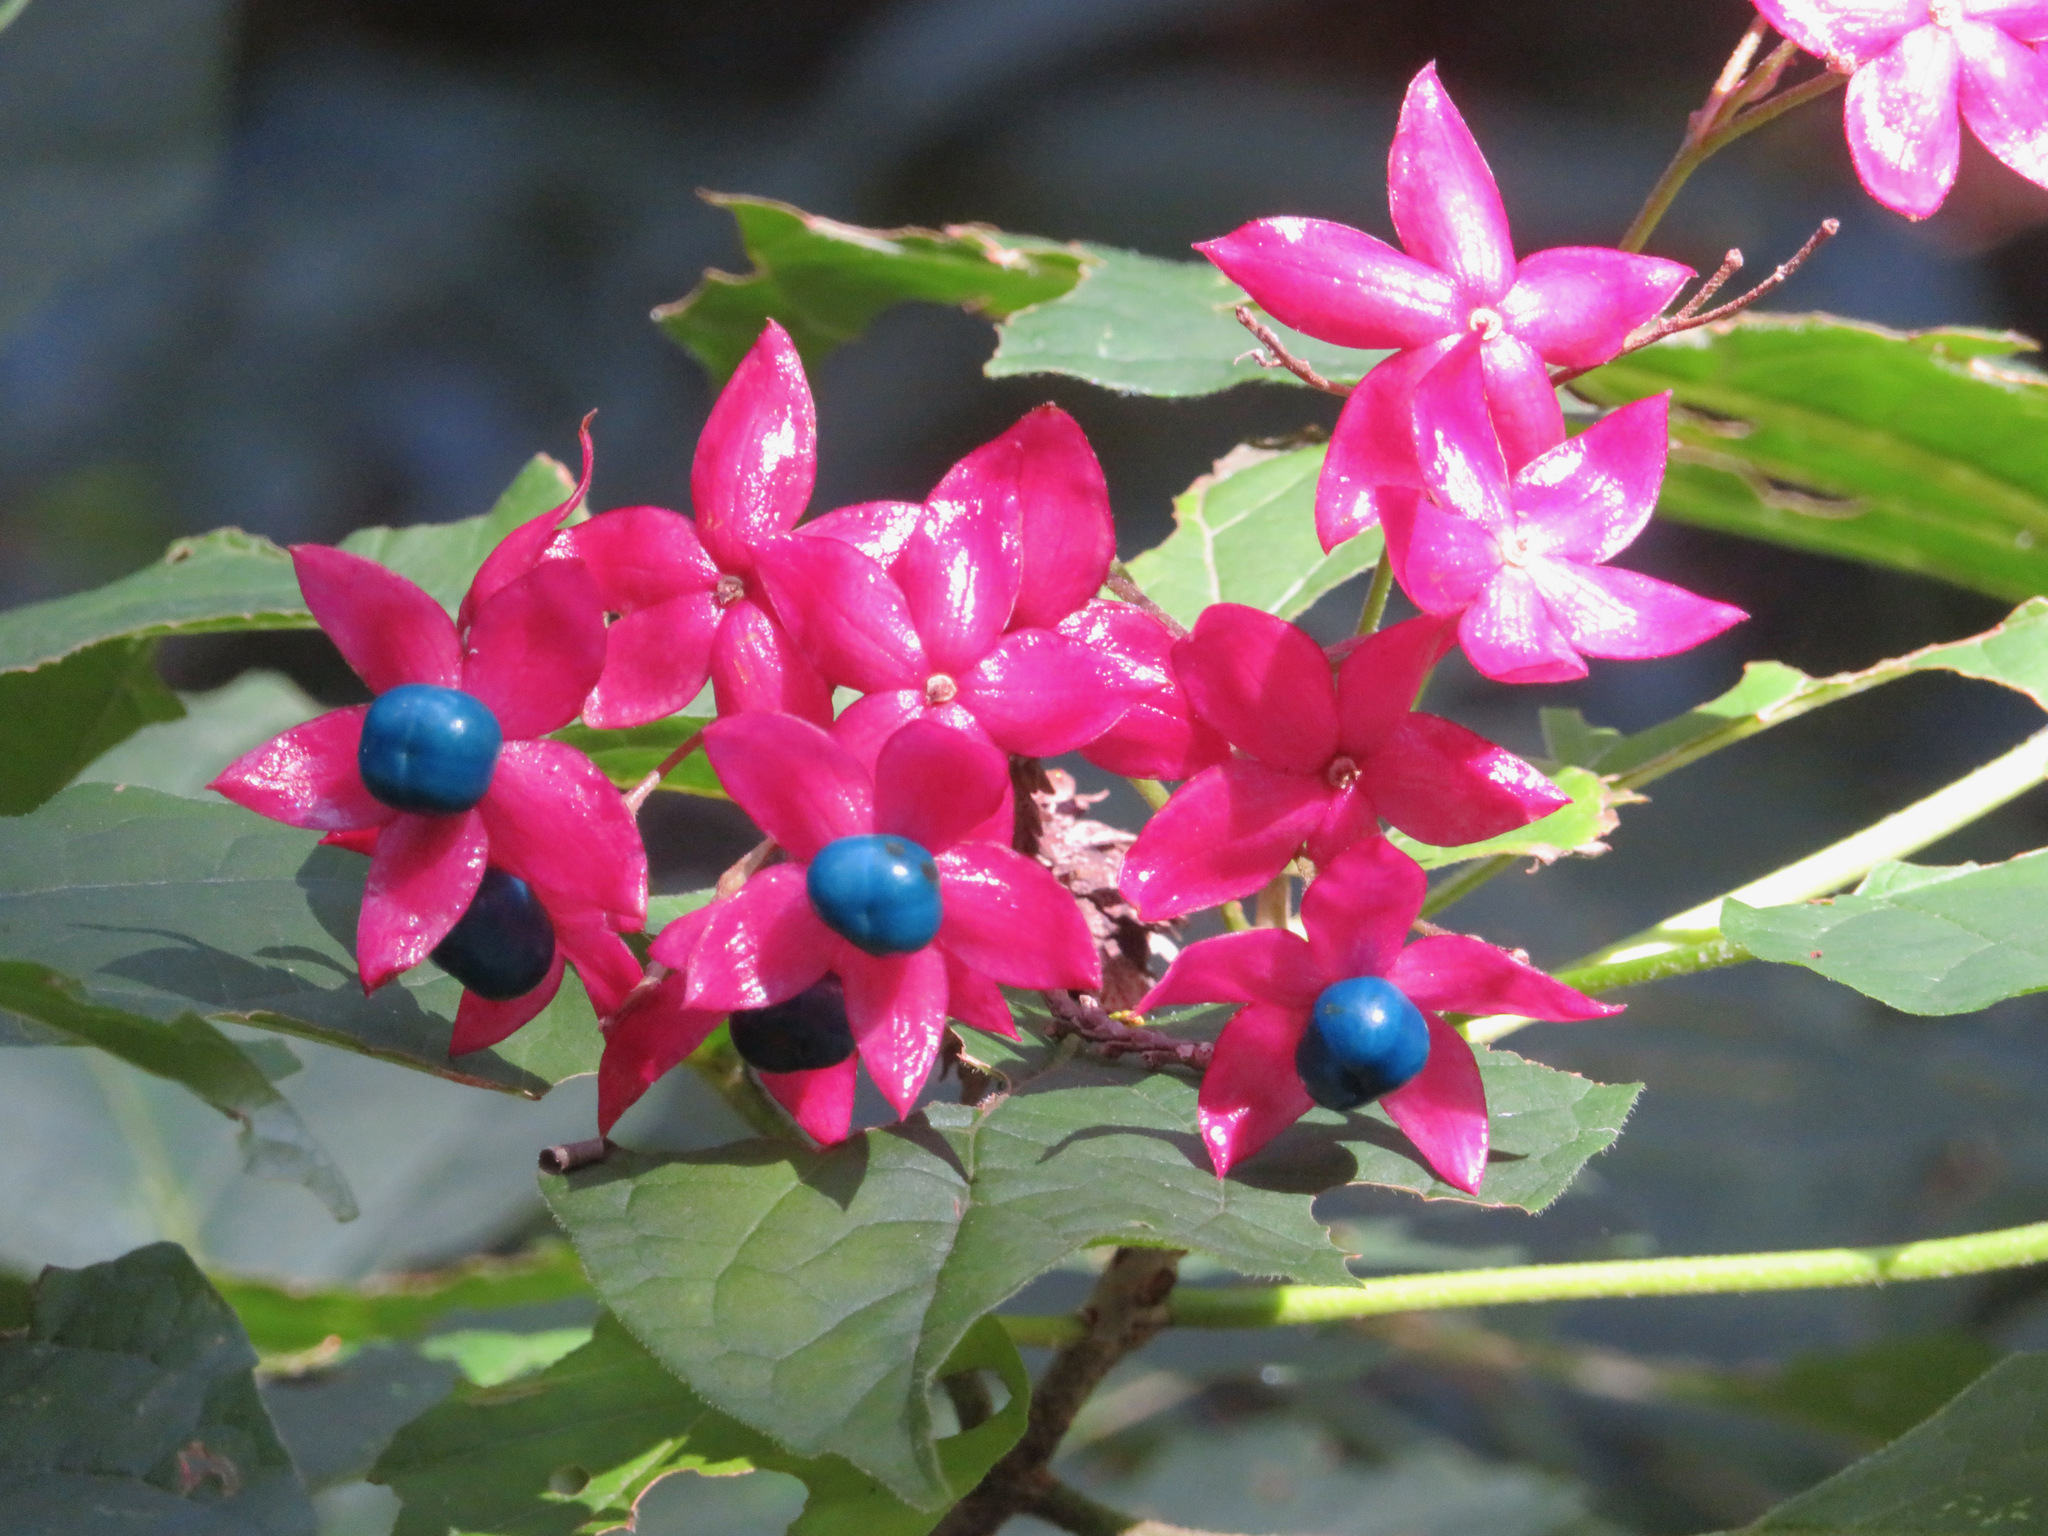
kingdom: Plantae
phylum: Tracheophyta
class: Magnoliopsida
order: Lamiales
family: Lamiaceae
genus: Clerodendrum
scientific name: Clerodendrum trichotomum
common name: Harlequin glorybower
